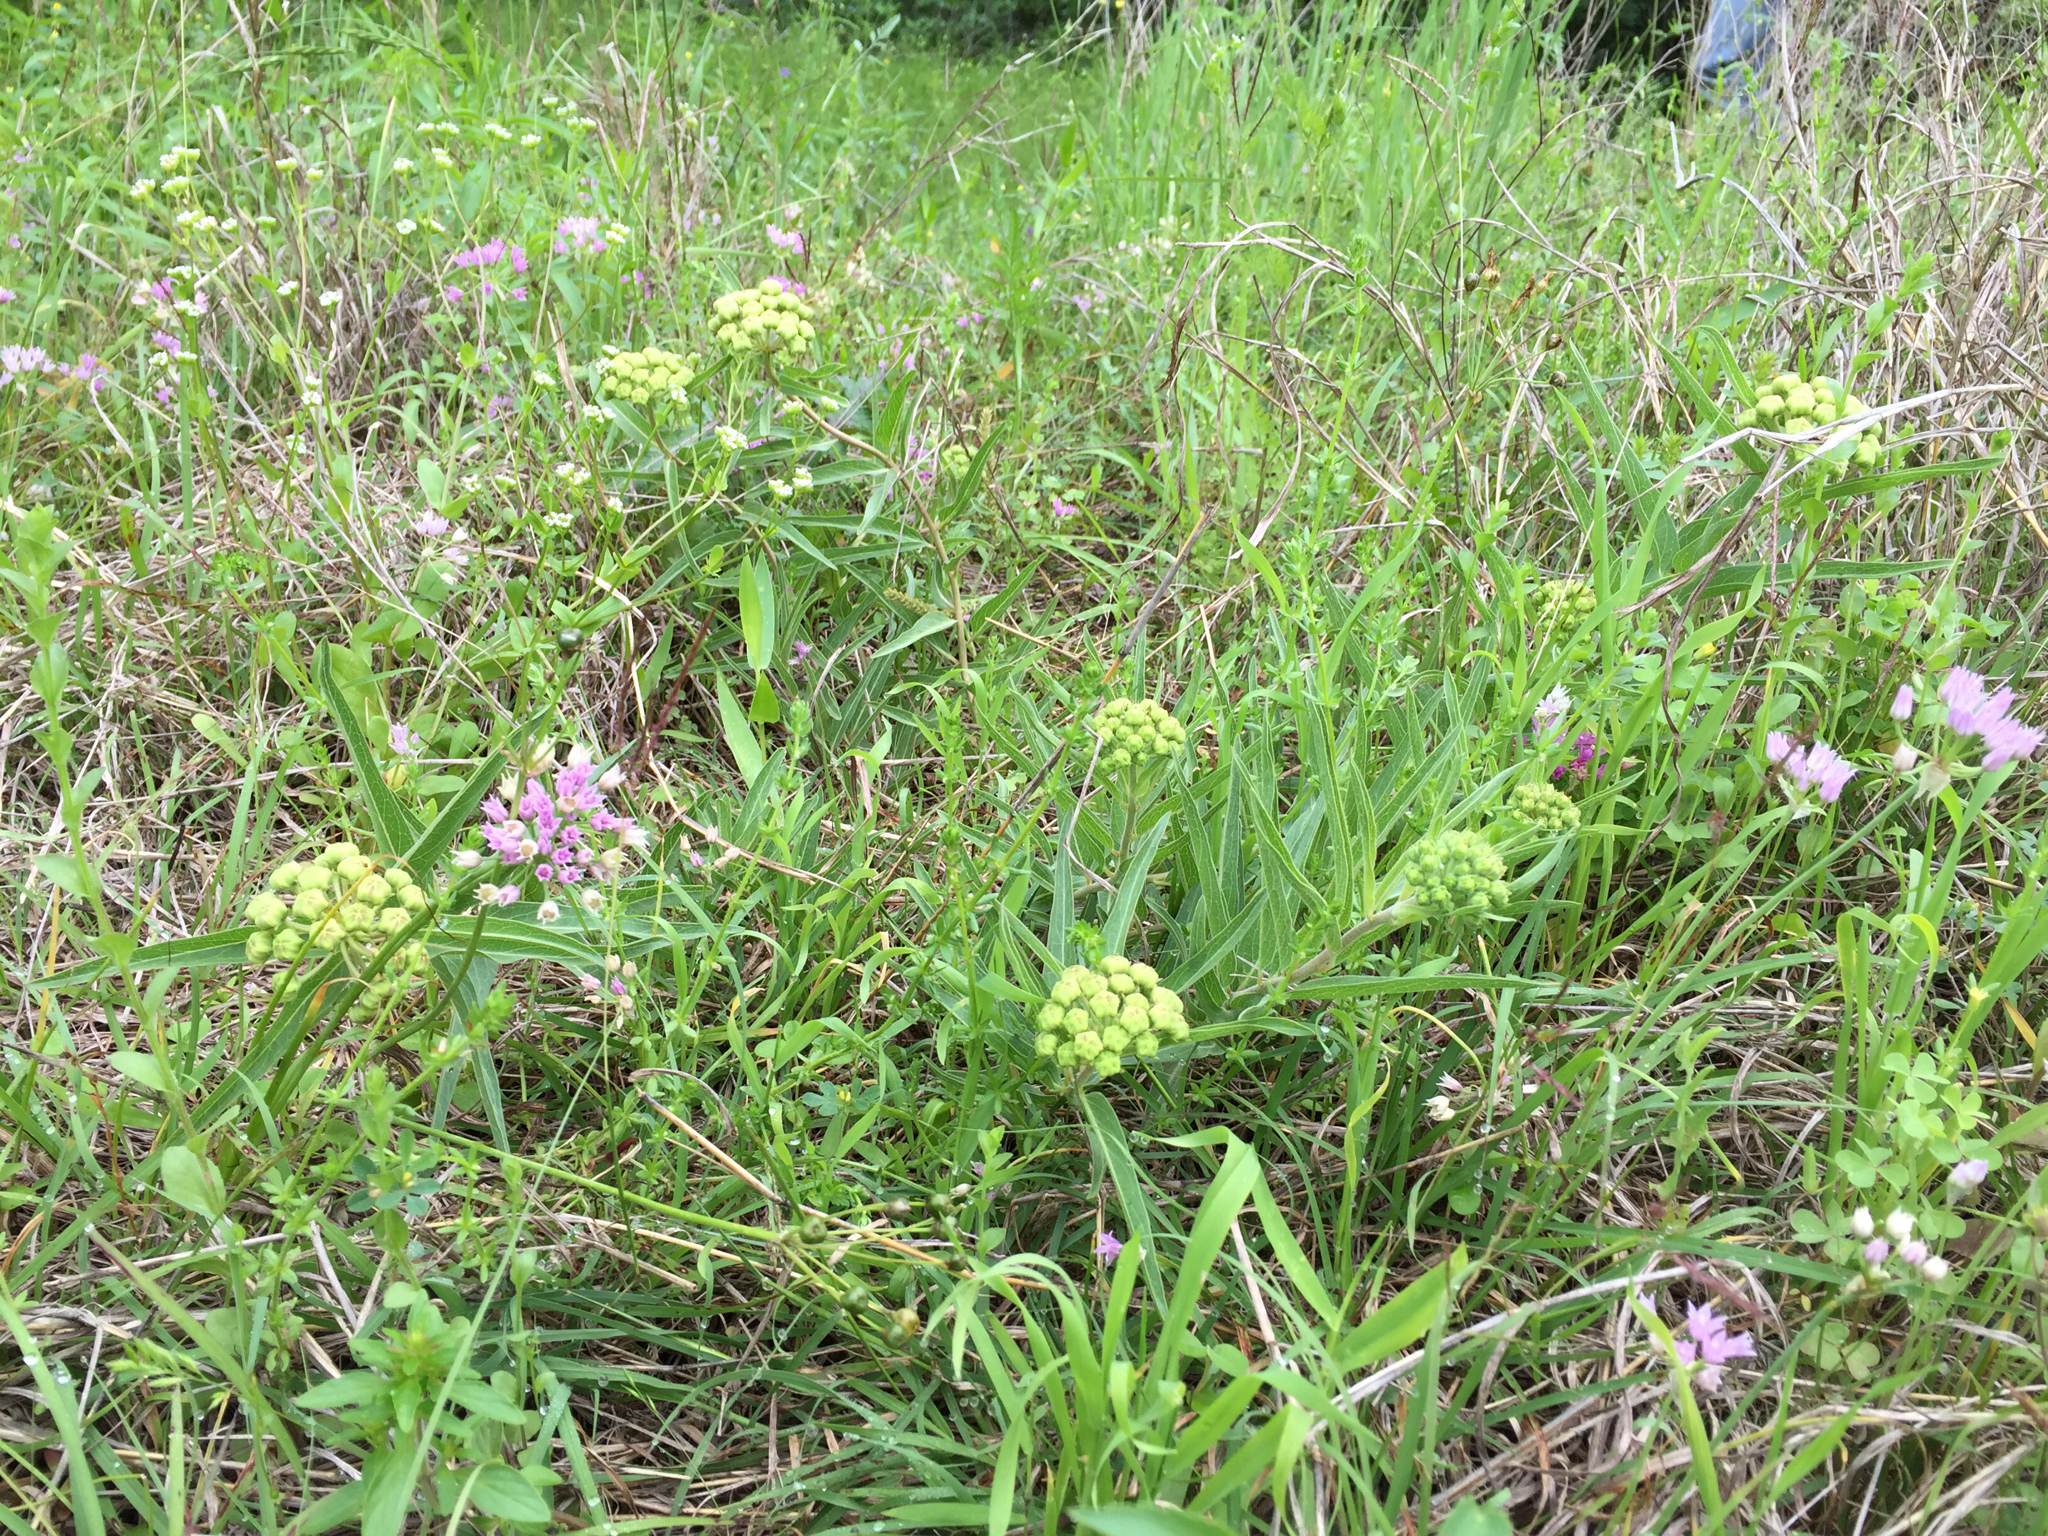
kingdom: Plantae
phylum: Tracheophyta
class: Magnoliopsida
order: Gentianales
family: Apocynaceae
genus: Asclepias
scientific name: Asclepias asperula
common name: Antelope horns
